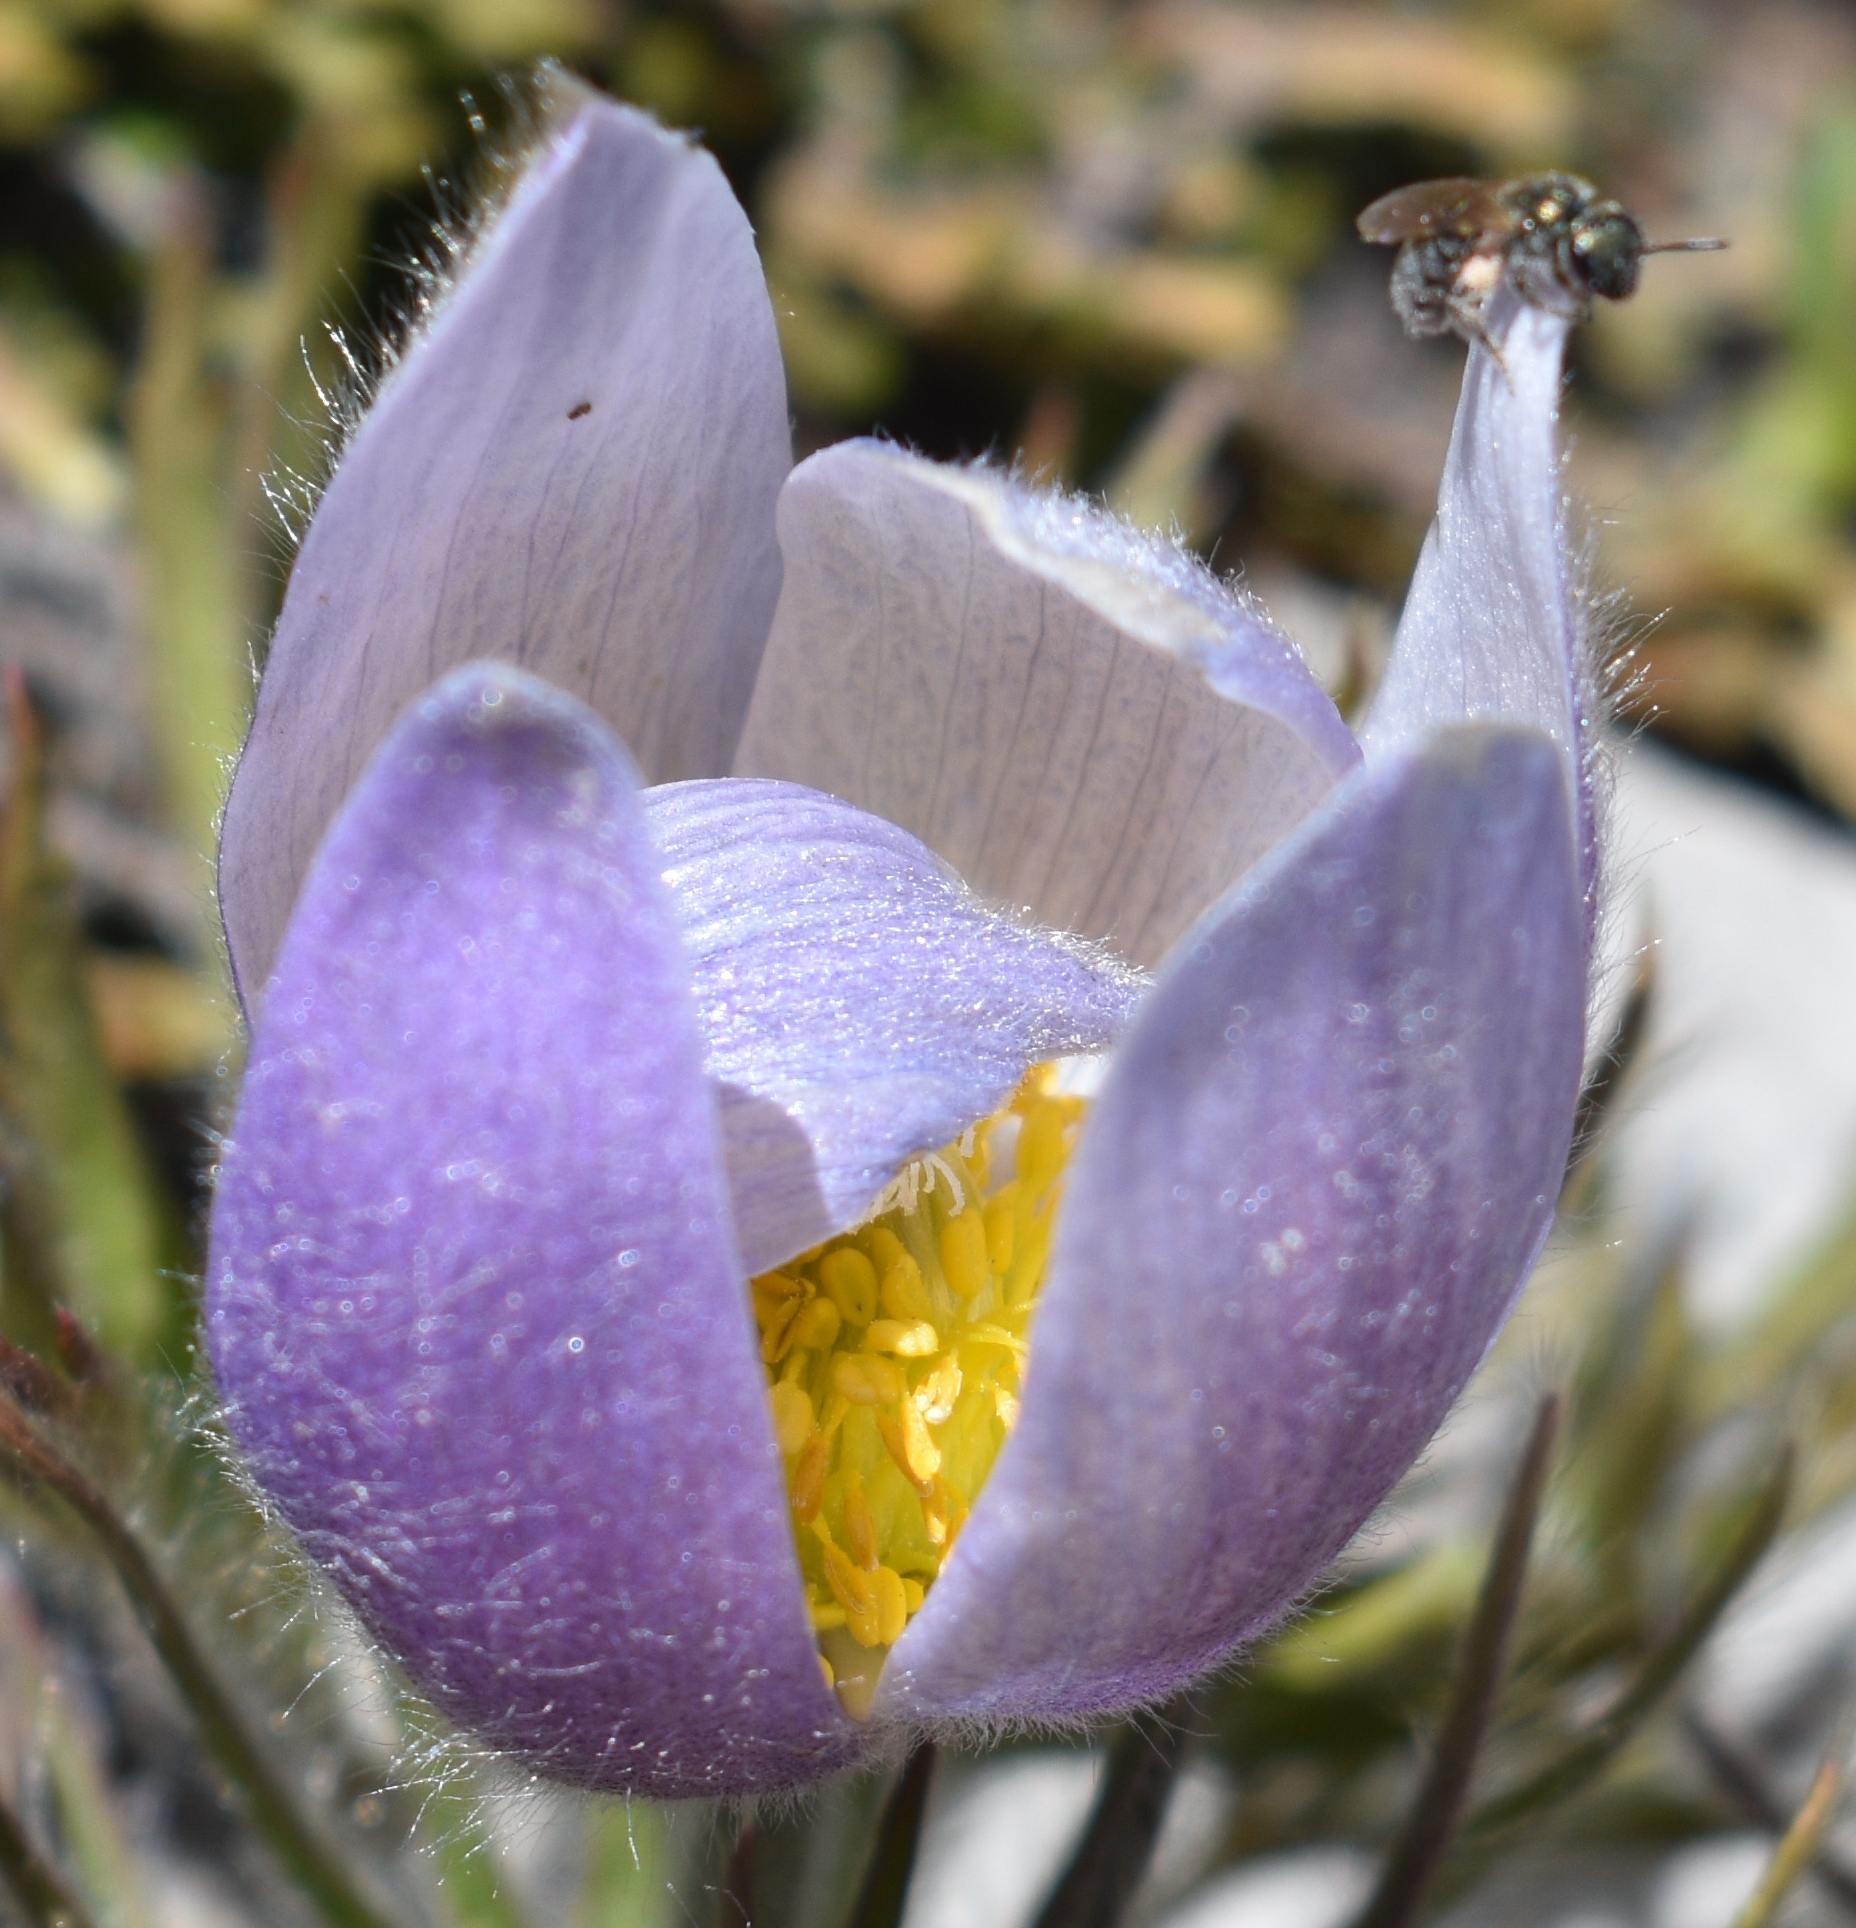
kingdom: Animalia
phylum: Arthropoda
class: Insecta
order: Hymenoptera
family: Halictidae
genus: Dialictus
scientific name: Dialictus
